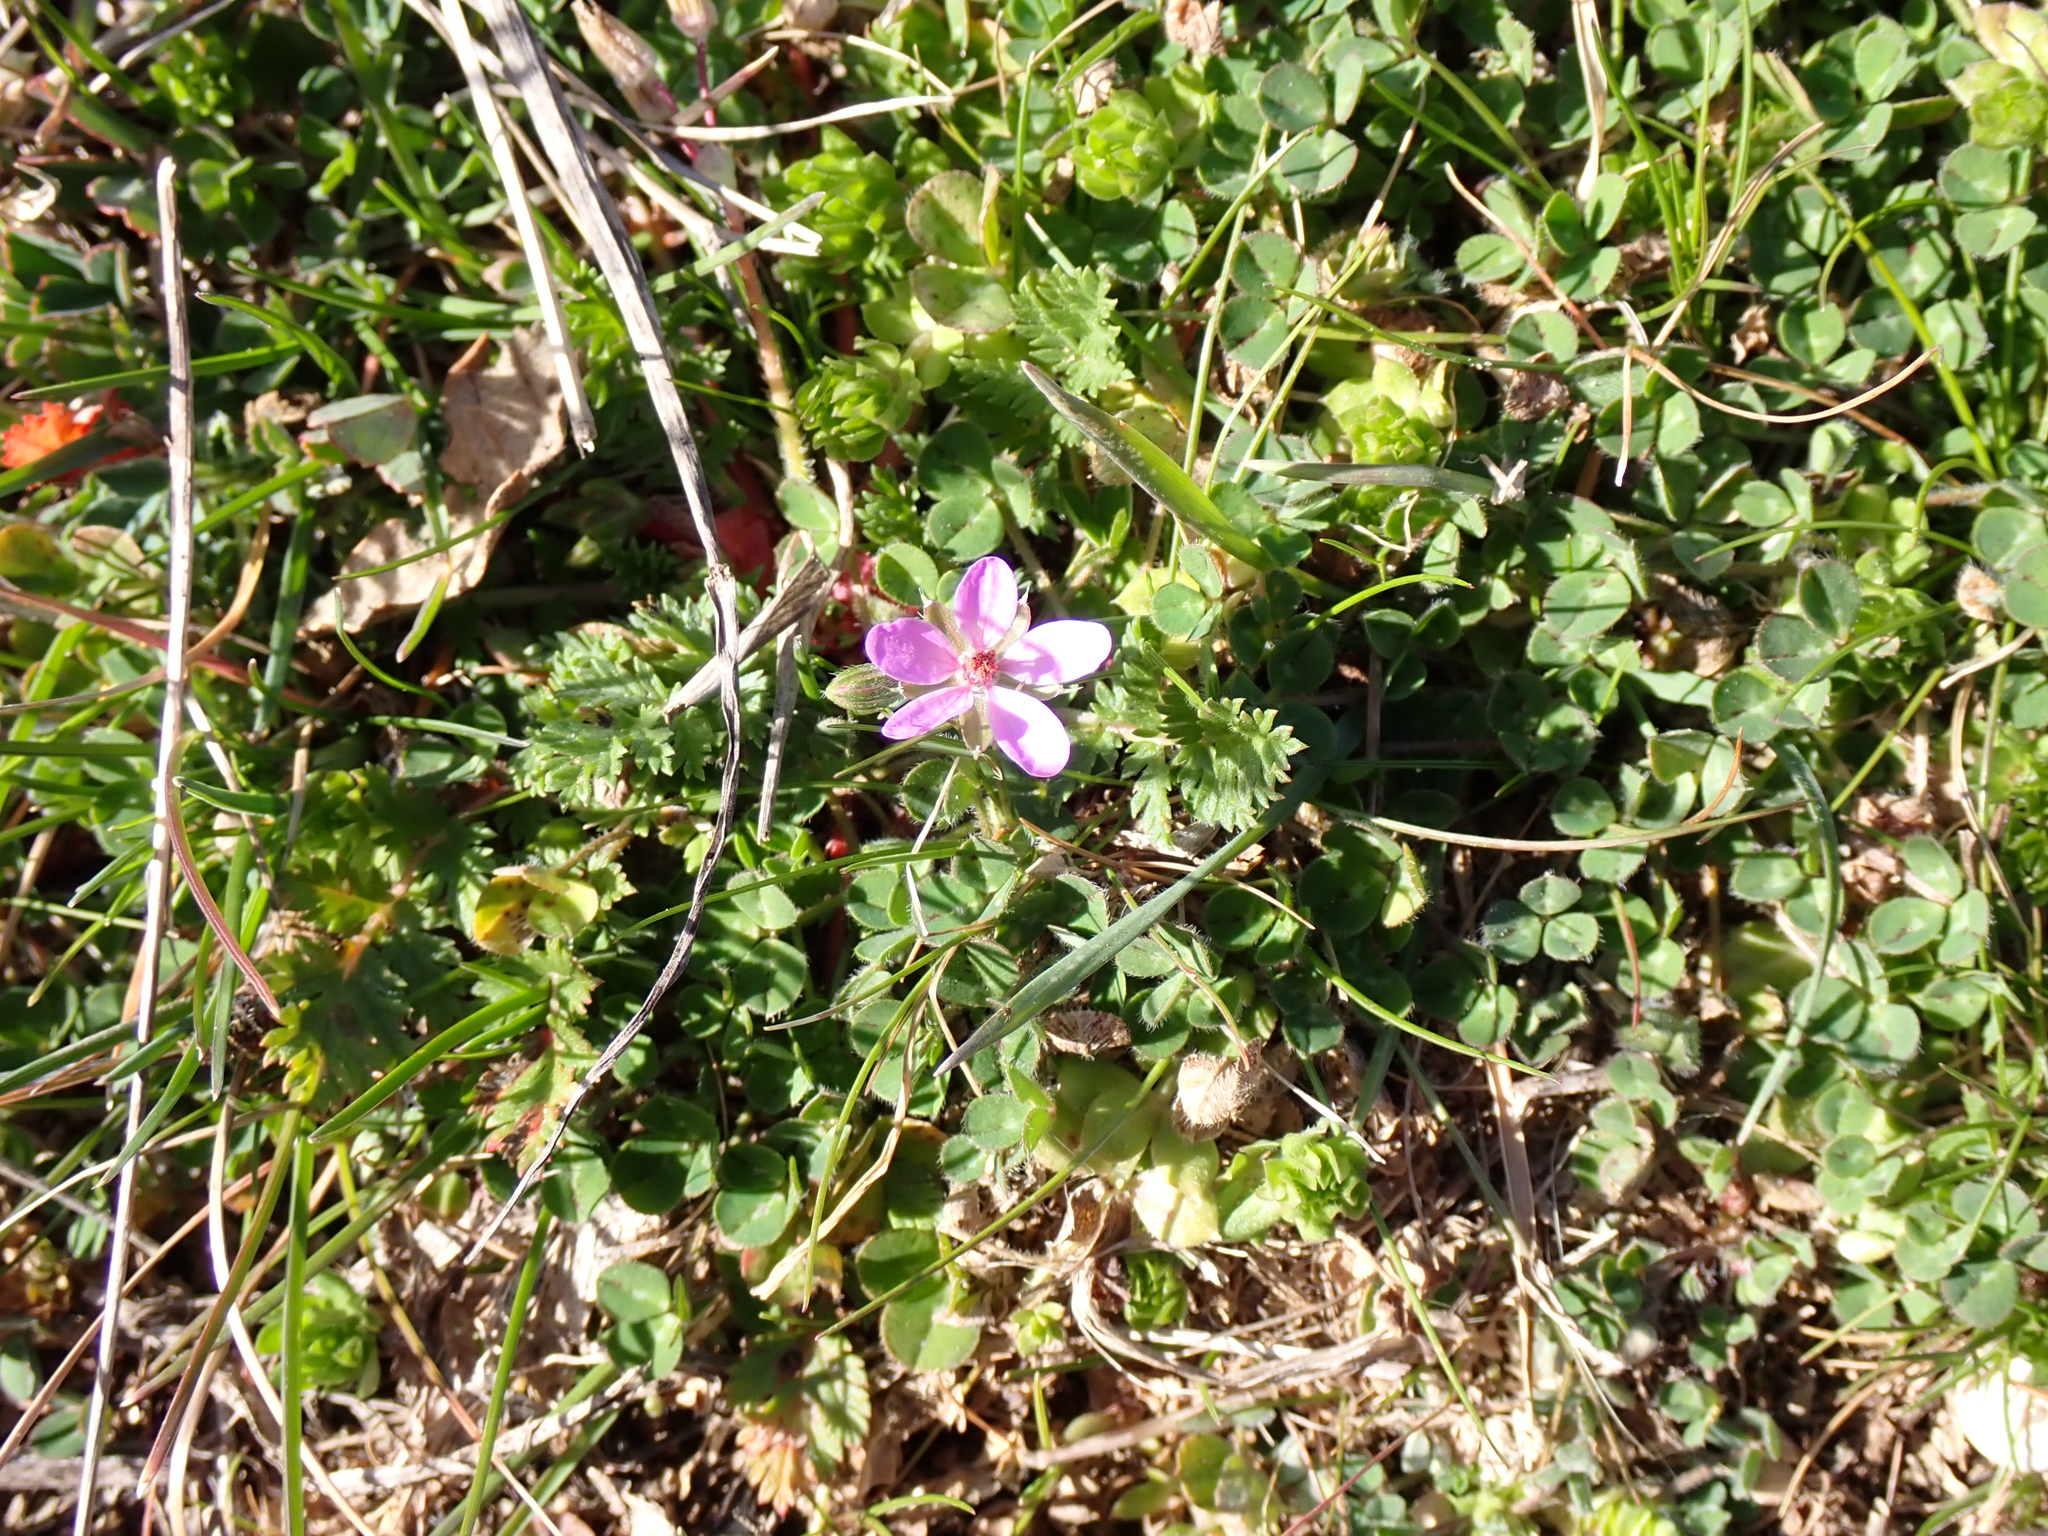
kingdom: Plantae
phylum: Tracheophyta
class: Magnoliopsida
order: Geraniales
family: Geraniaceae
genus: Erodium
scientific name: Erodium cicutarium
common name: Common stork's-bill
